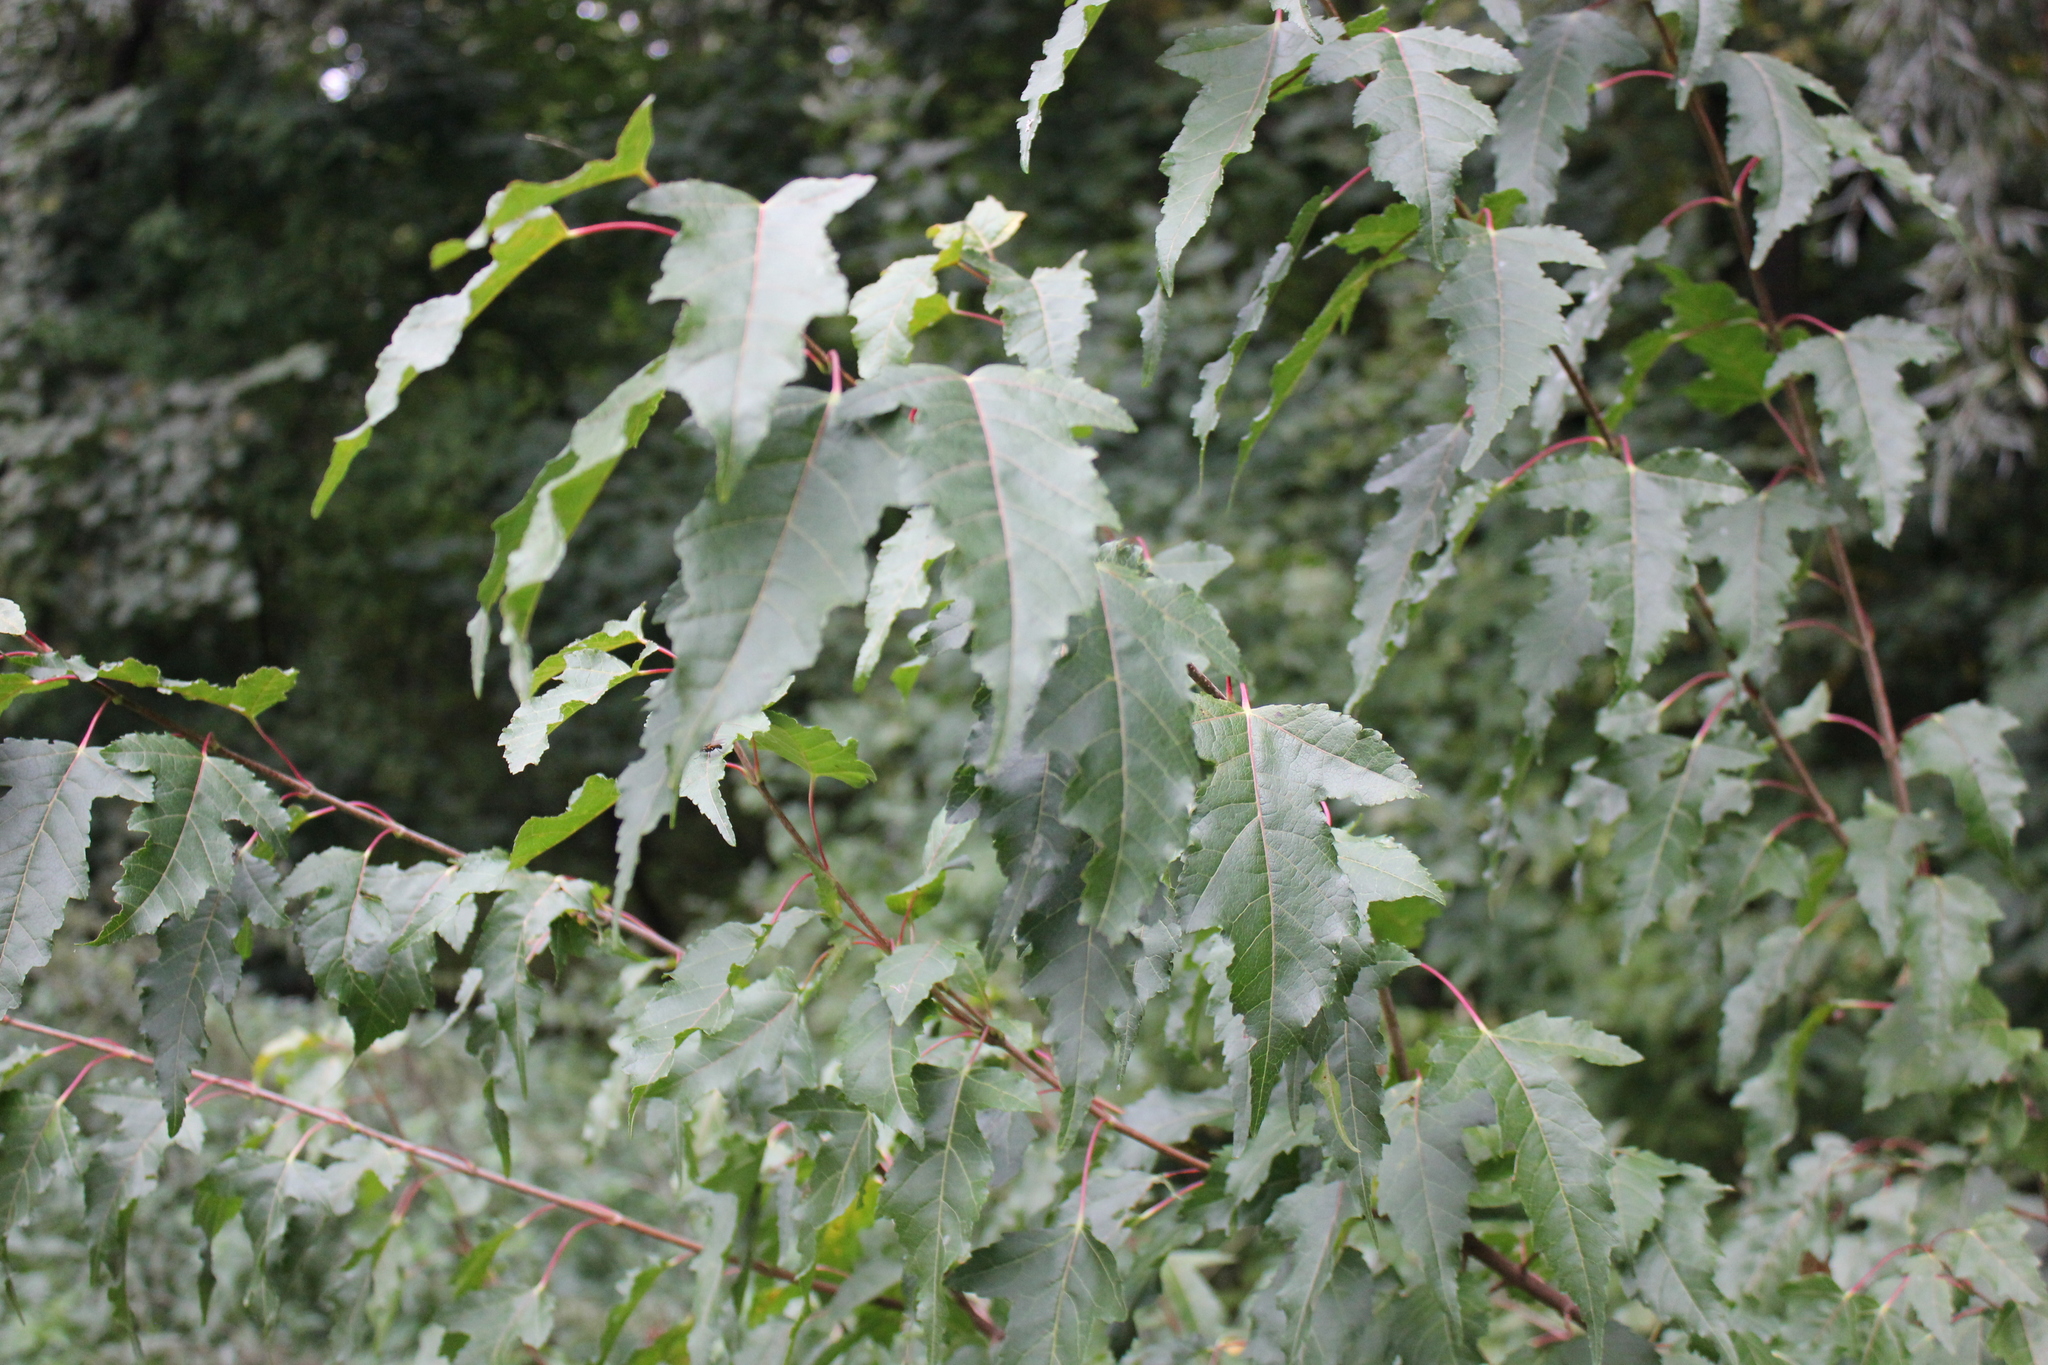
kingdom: Plantae
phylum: Tracheophyta
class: Magnoliopsida
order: Sapindales
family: Sapindaceae
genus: Acer
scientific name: Acer tataricum
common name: Tartar maple
